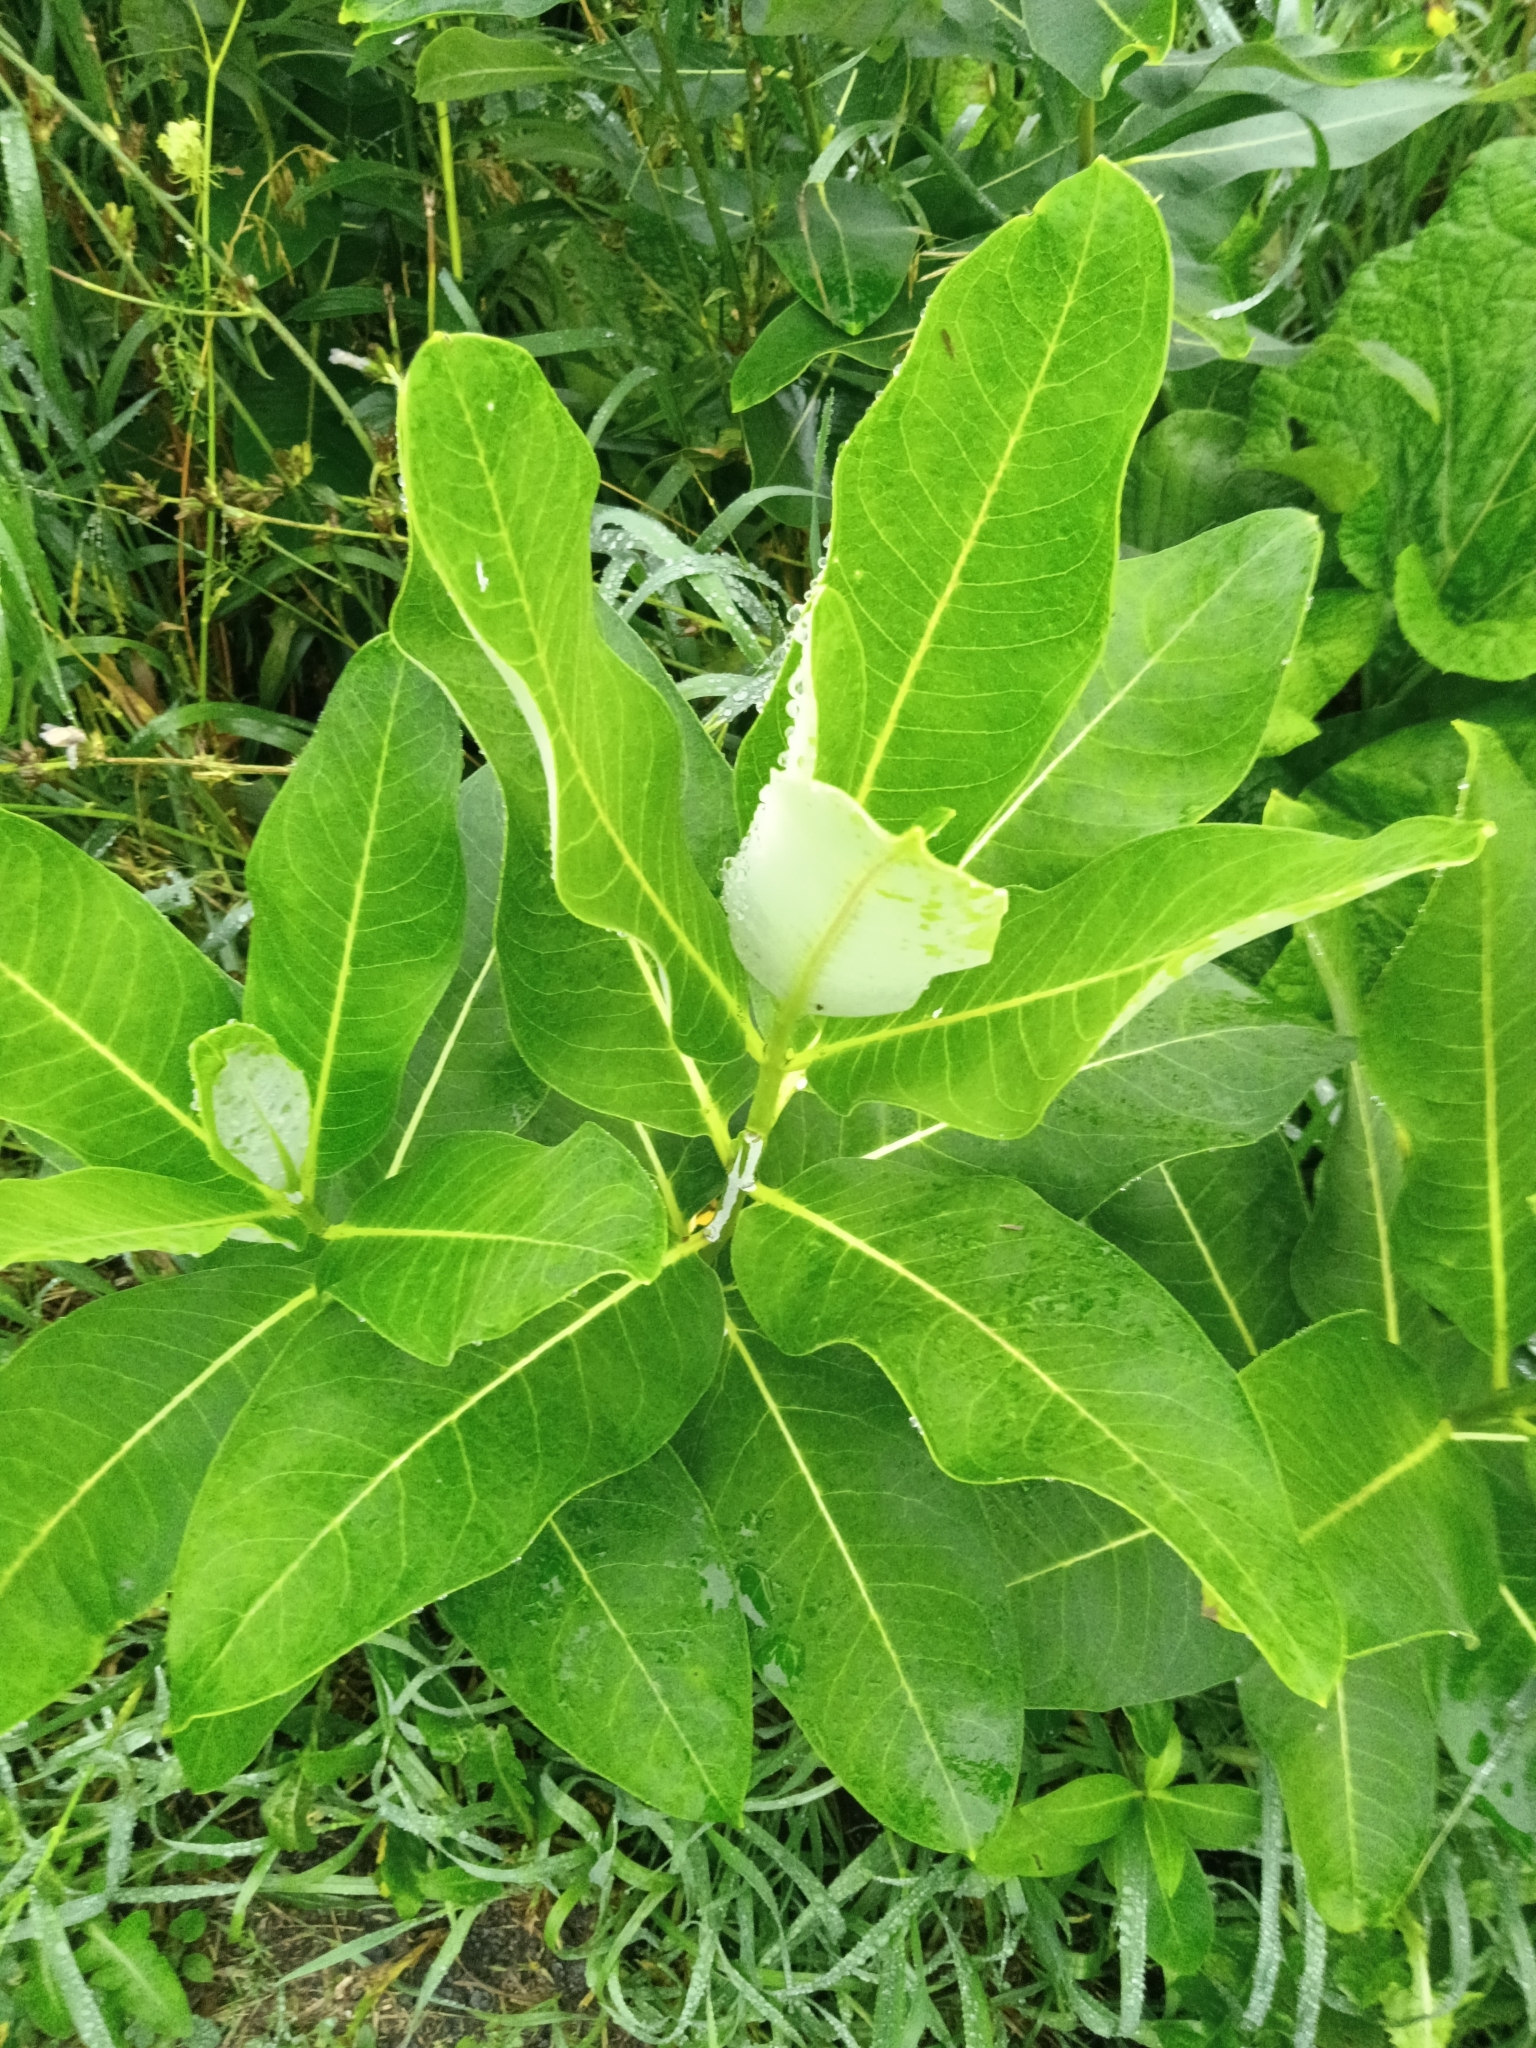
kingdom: Plantae
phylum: Tracheophyta
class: Magnoliopsida
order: Gentianales
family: Apocynaceae
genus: Asclepias
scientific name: Asclepias syriaca
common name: Common milkweed
